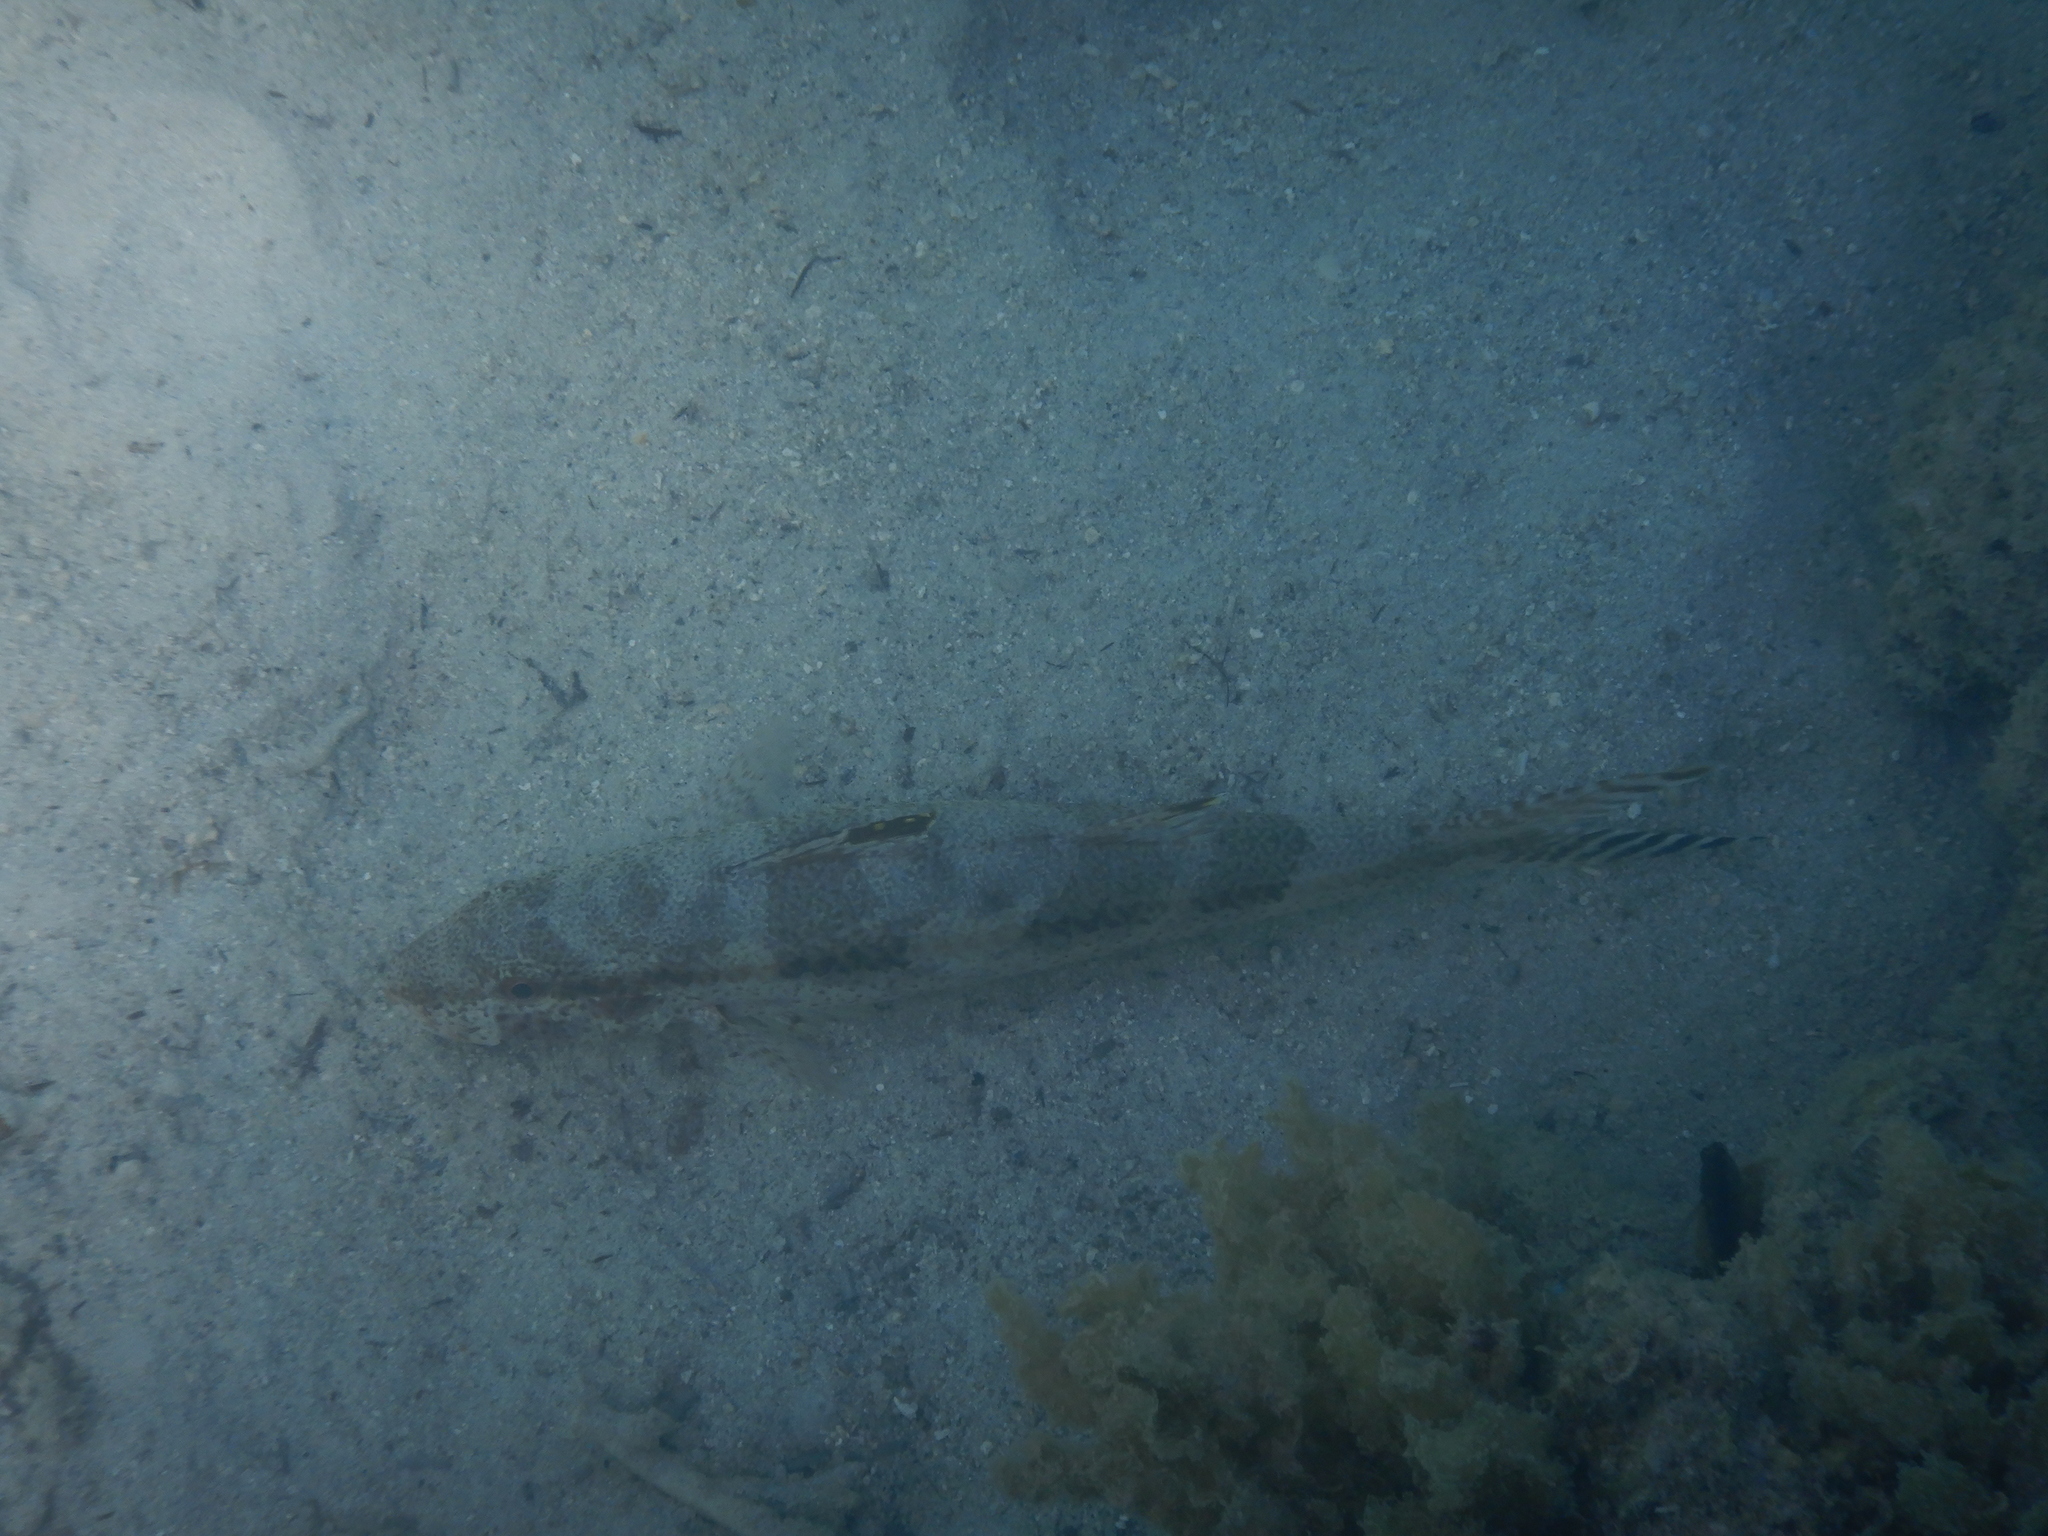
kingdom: Animalia
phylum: Chordata
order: Perciformes
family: Mullidae
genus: Upeneus
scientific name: Upeneus tragula
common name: Freckled goatfish
